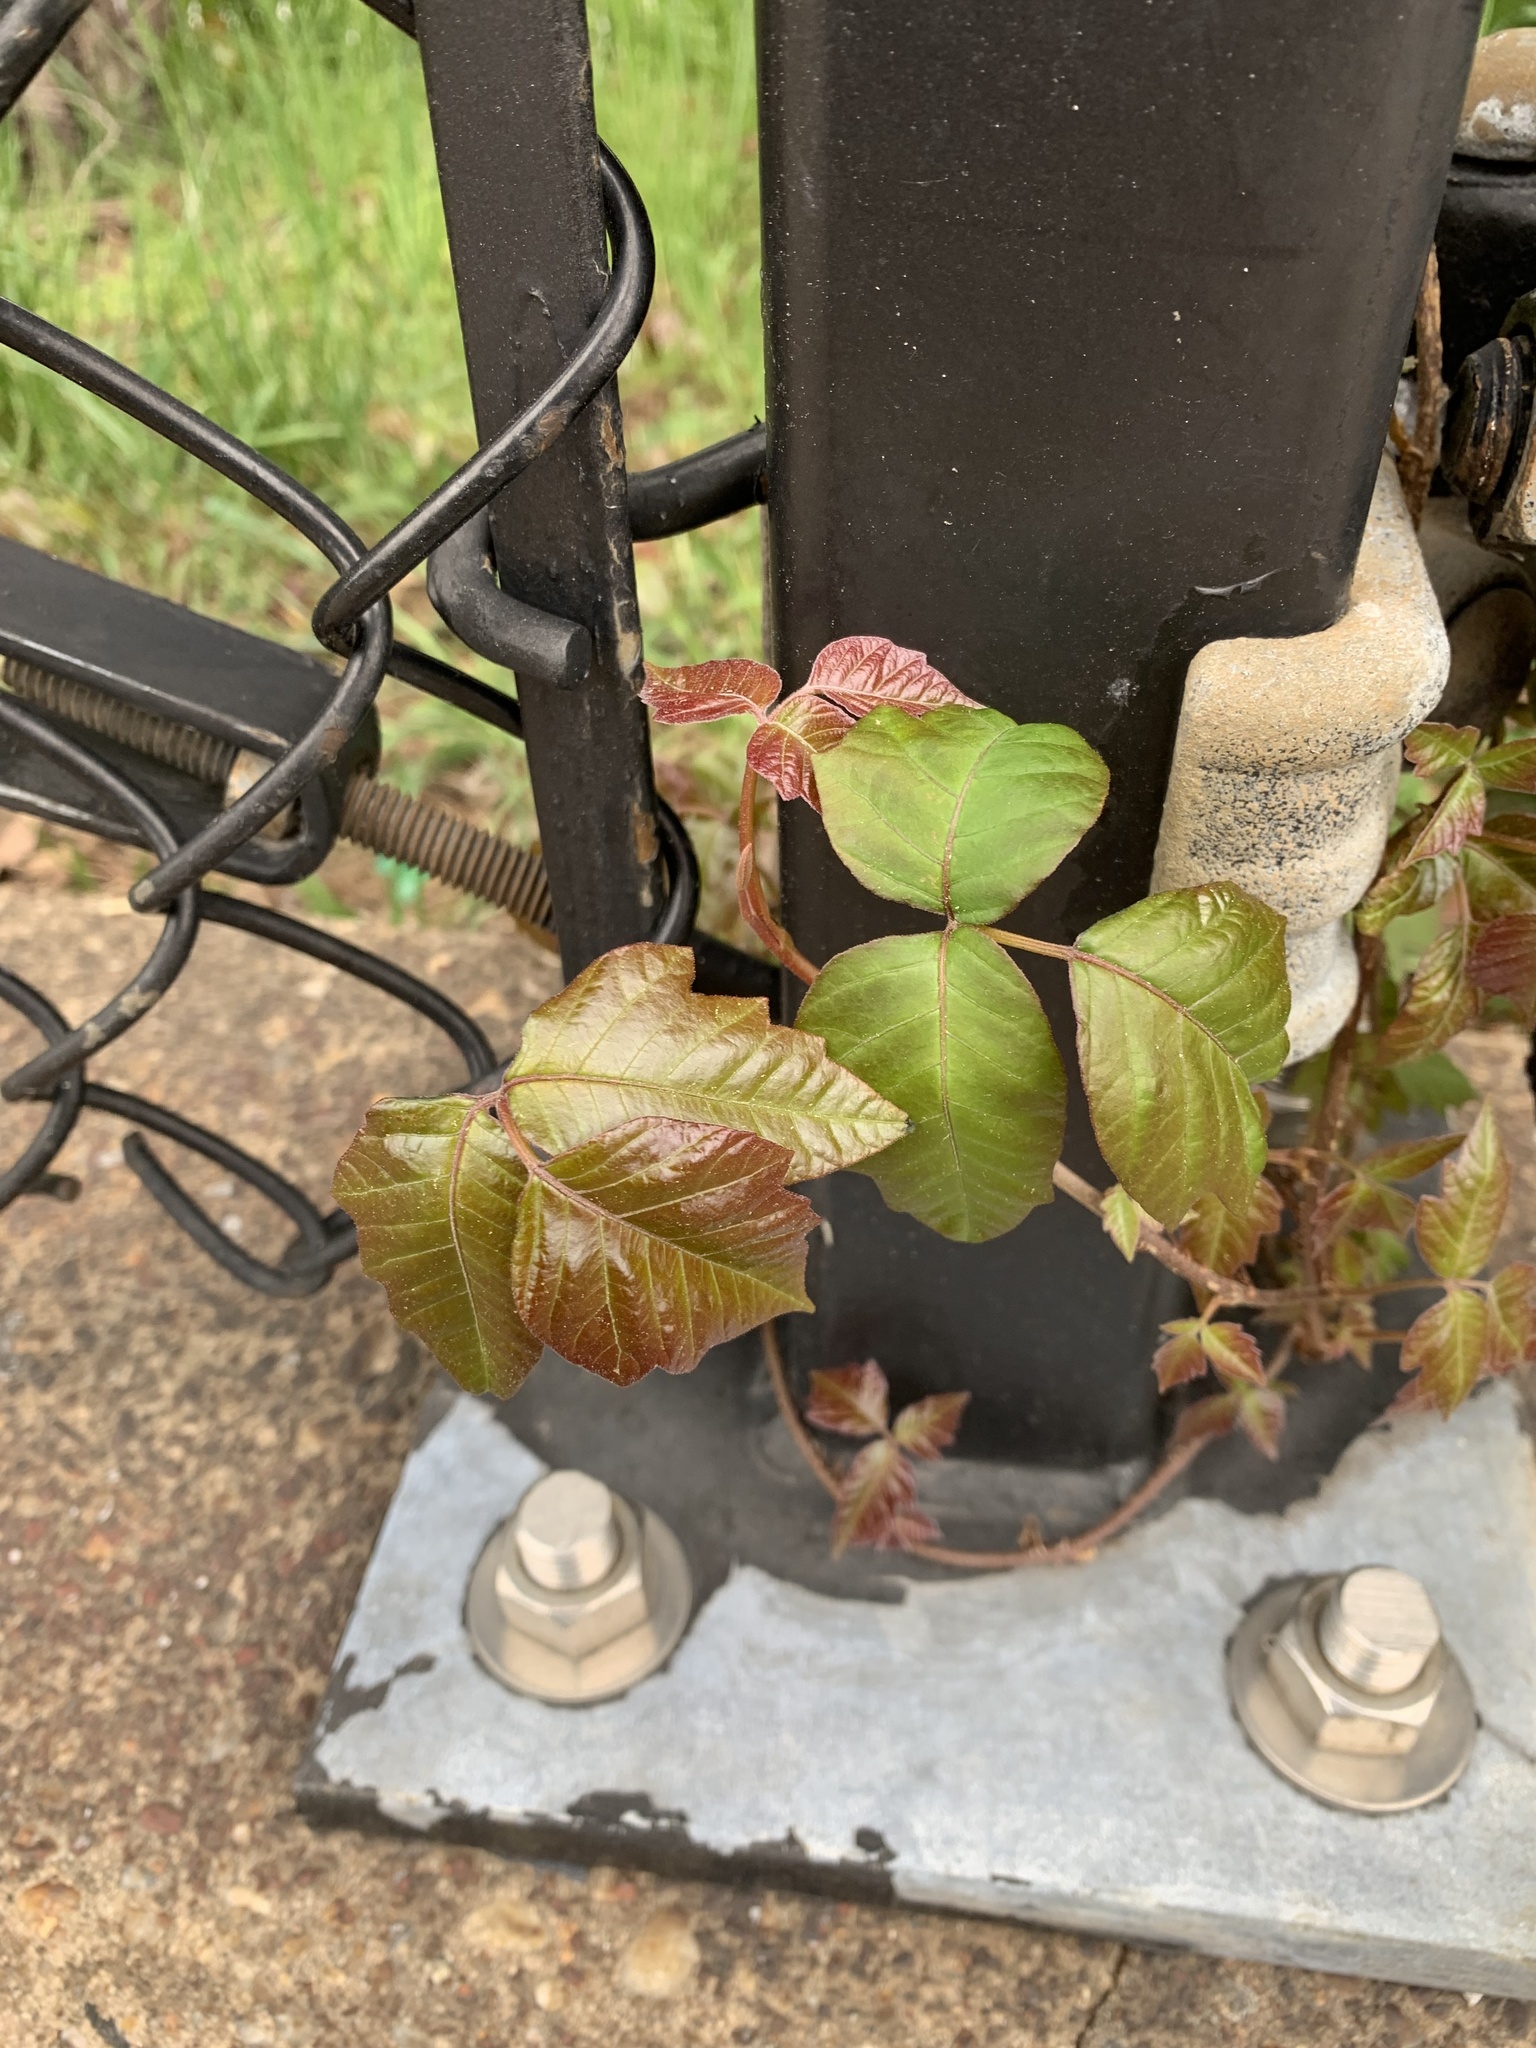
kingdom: Plantae
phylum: Tracheophyta
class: Magnoliopsida
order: Sapindales
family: Anacardiaceae
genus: Toxicodendron
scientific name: Toxicodendron radicans
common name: Poison ivy
